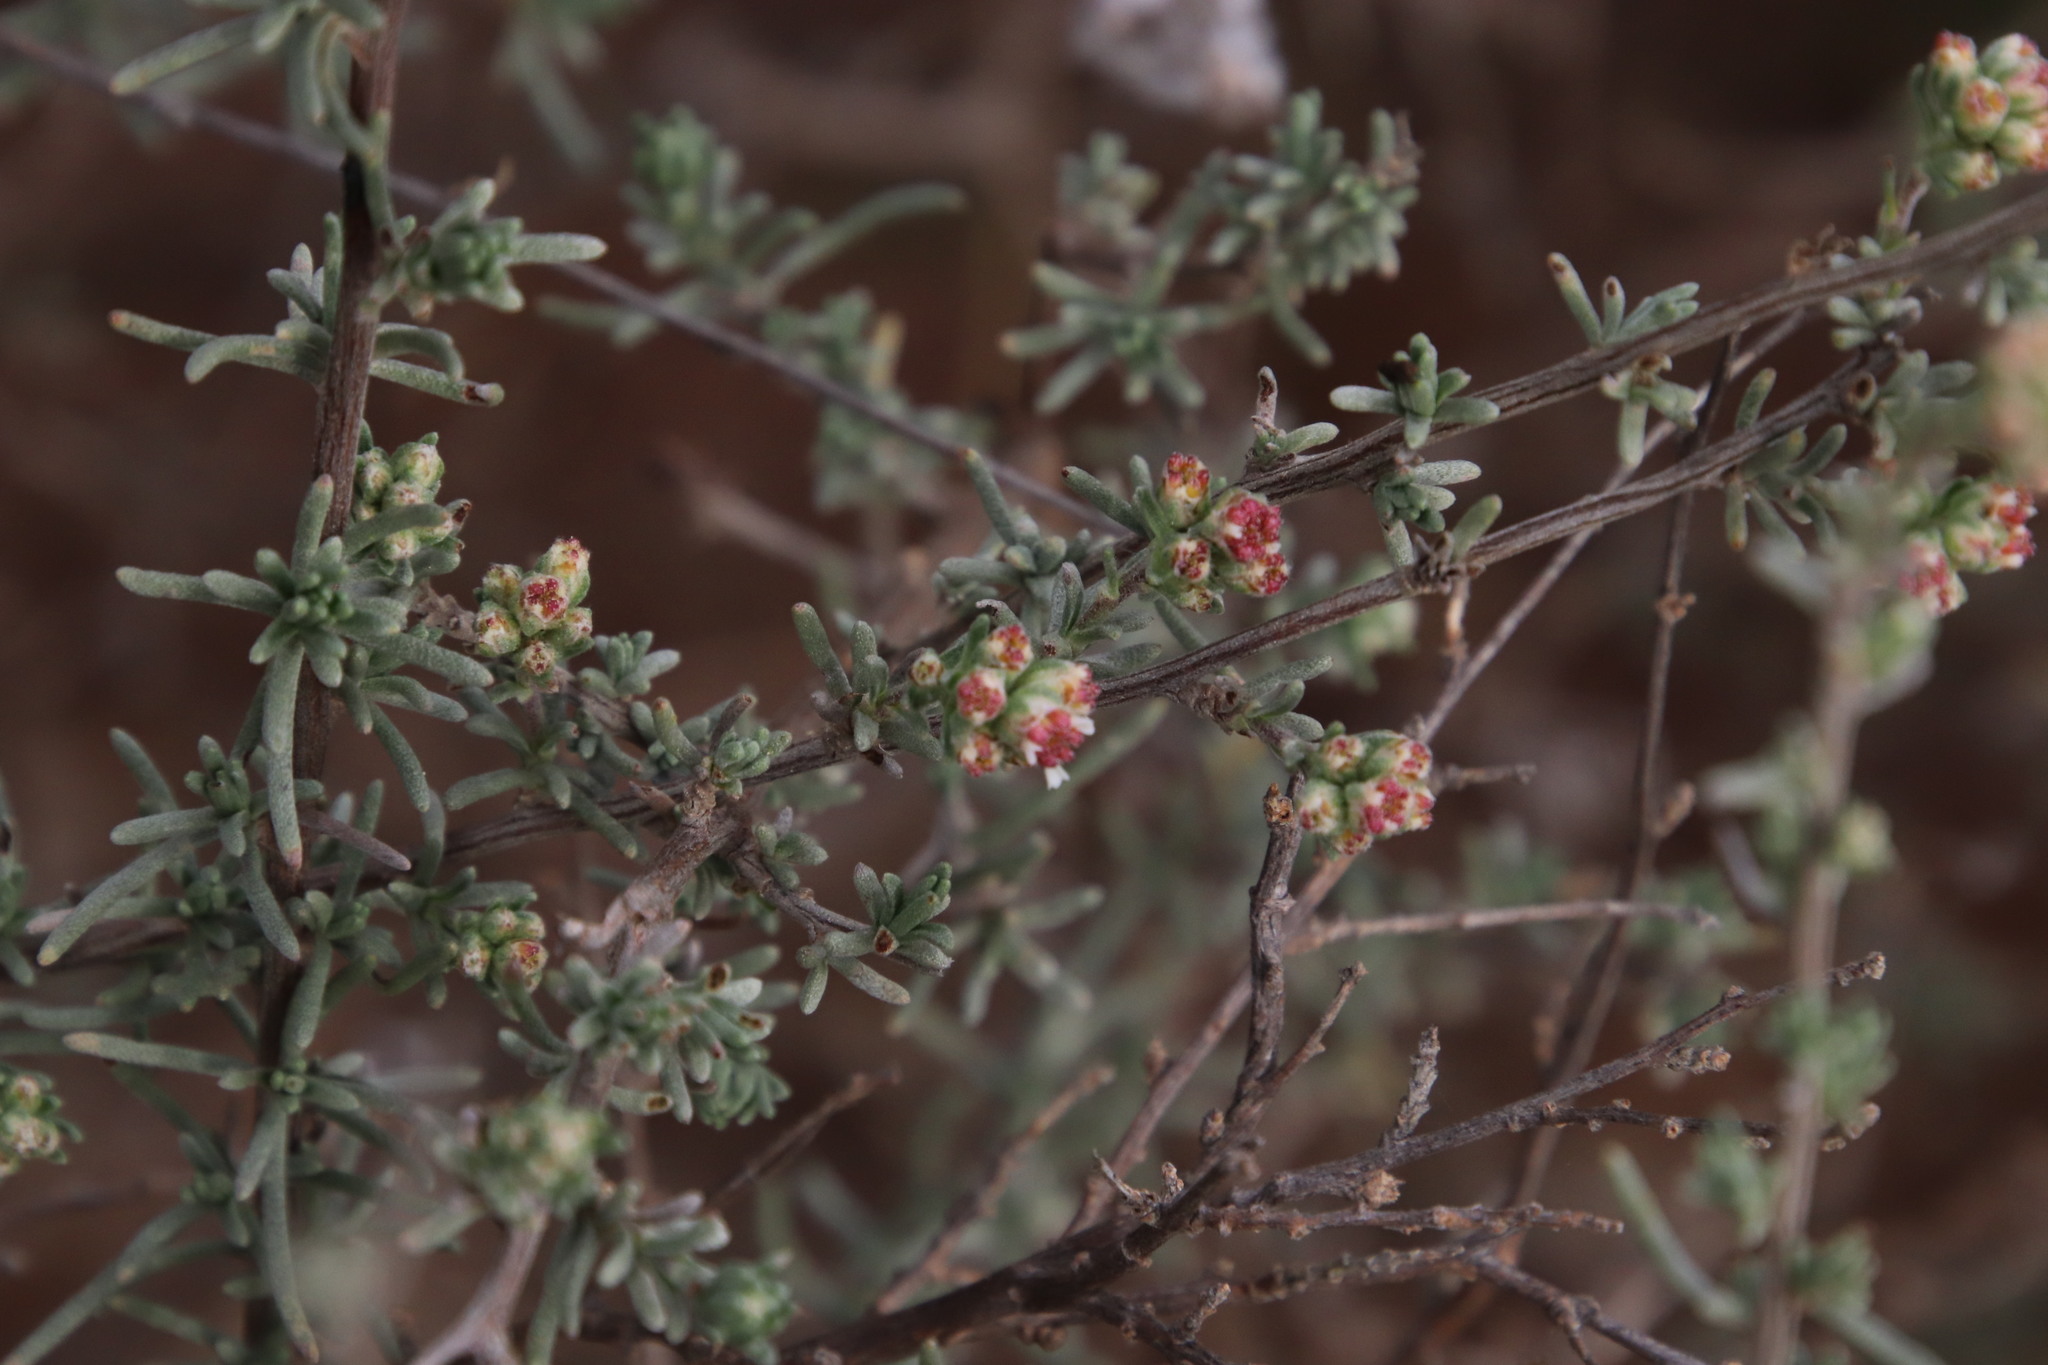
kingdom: Plantae
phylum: Tracheophyta
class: Magnoliopsida
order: Asterales
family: Asteraceae
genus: Eriocephalus
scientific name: Eriocephalus africanus
